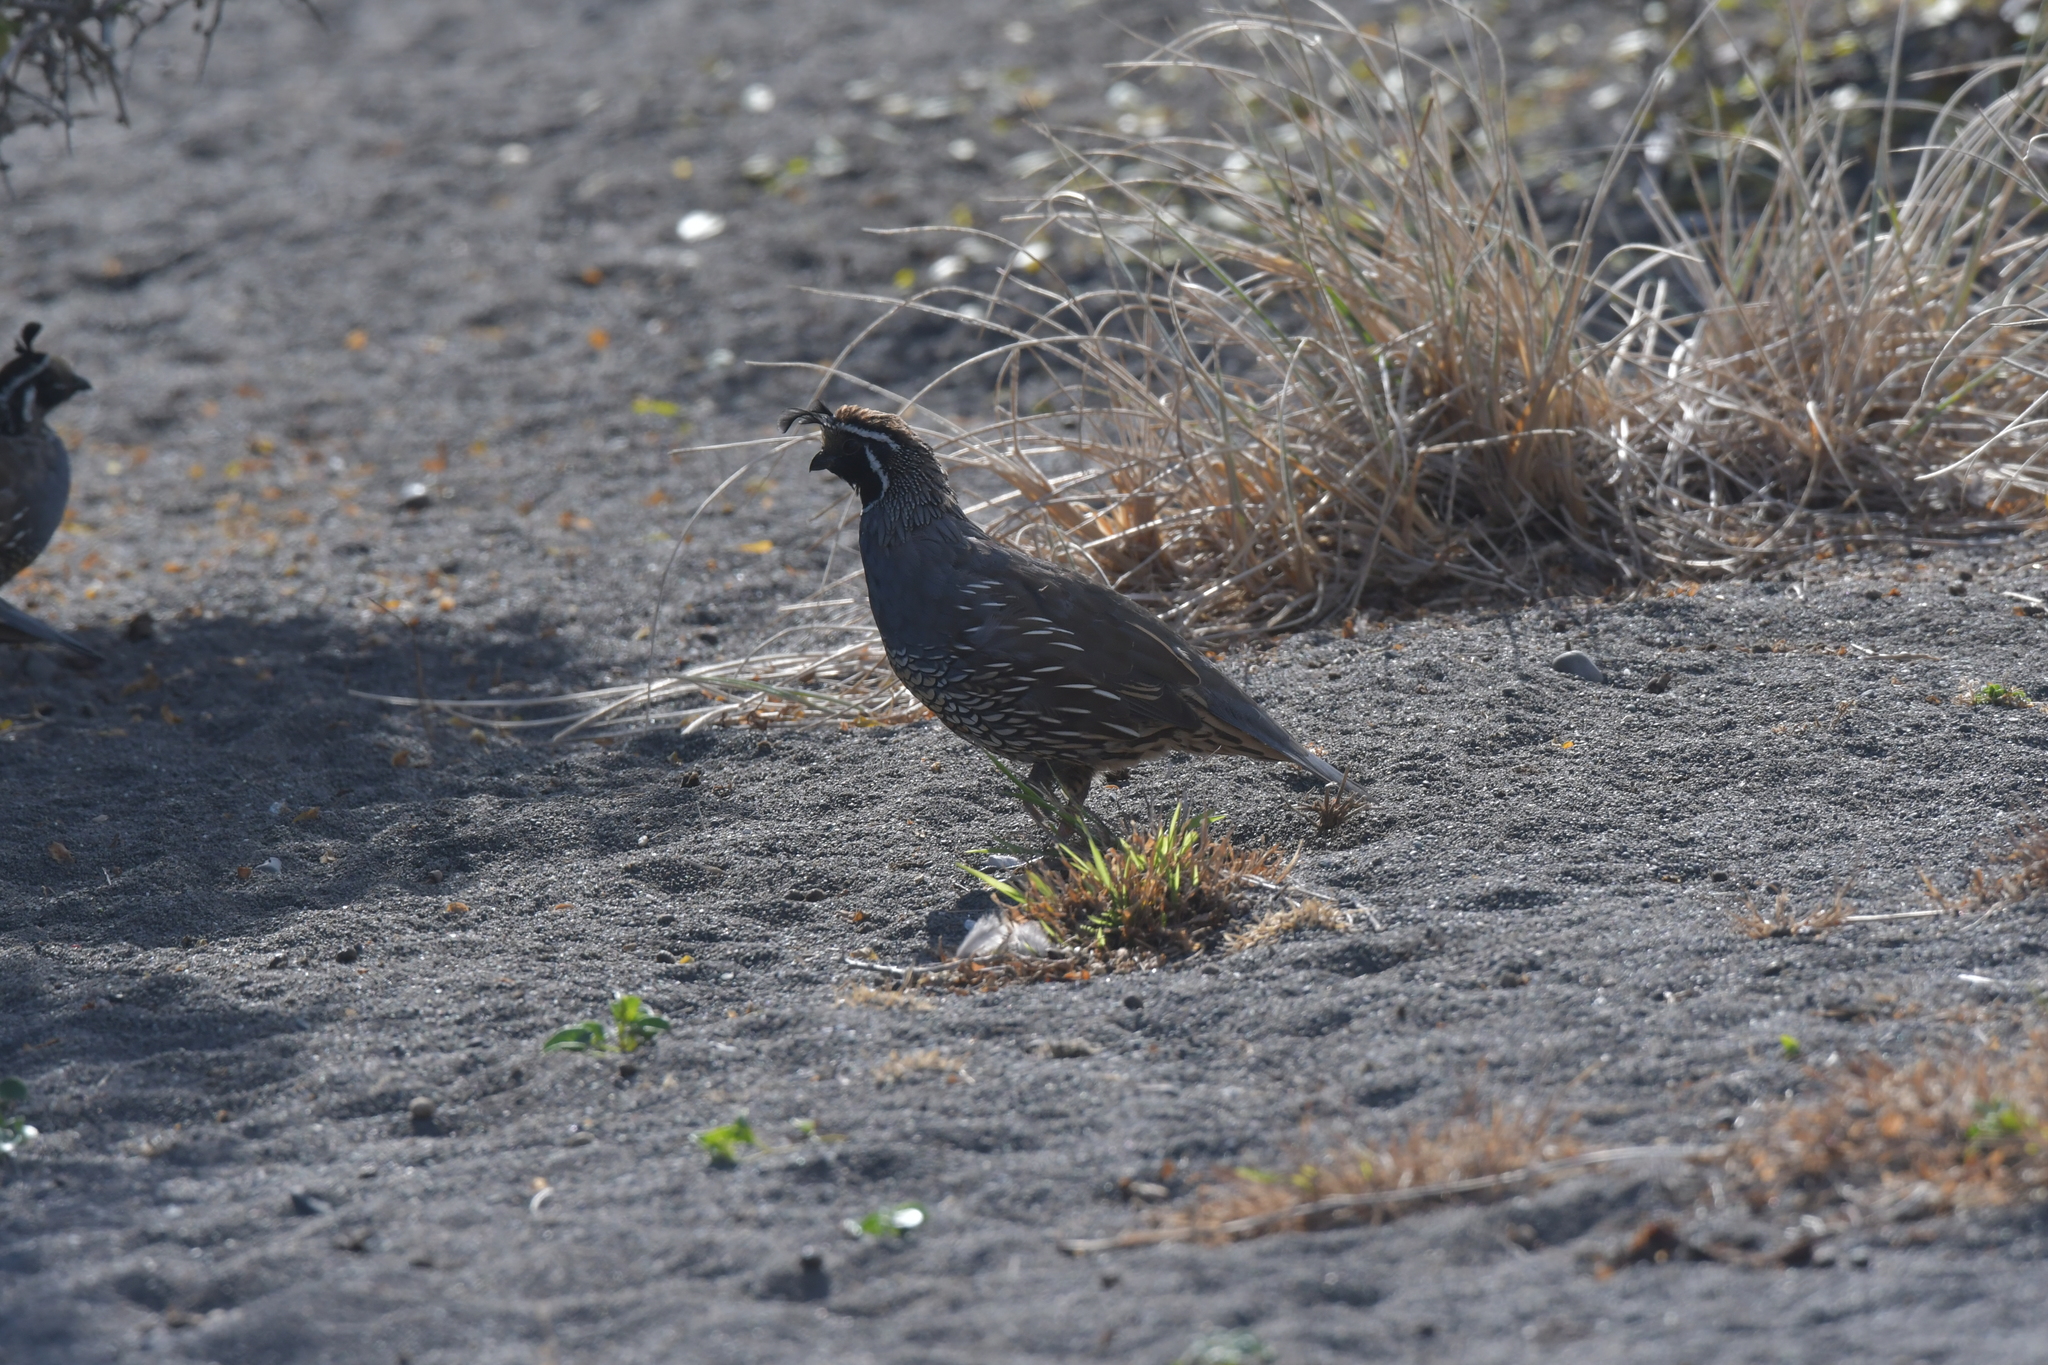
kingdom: Animalia
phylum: Chordata
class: Aves
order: Galliformes
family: Odontophoridae
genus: Callipepla
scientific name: Callipepla californica
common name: California quail
